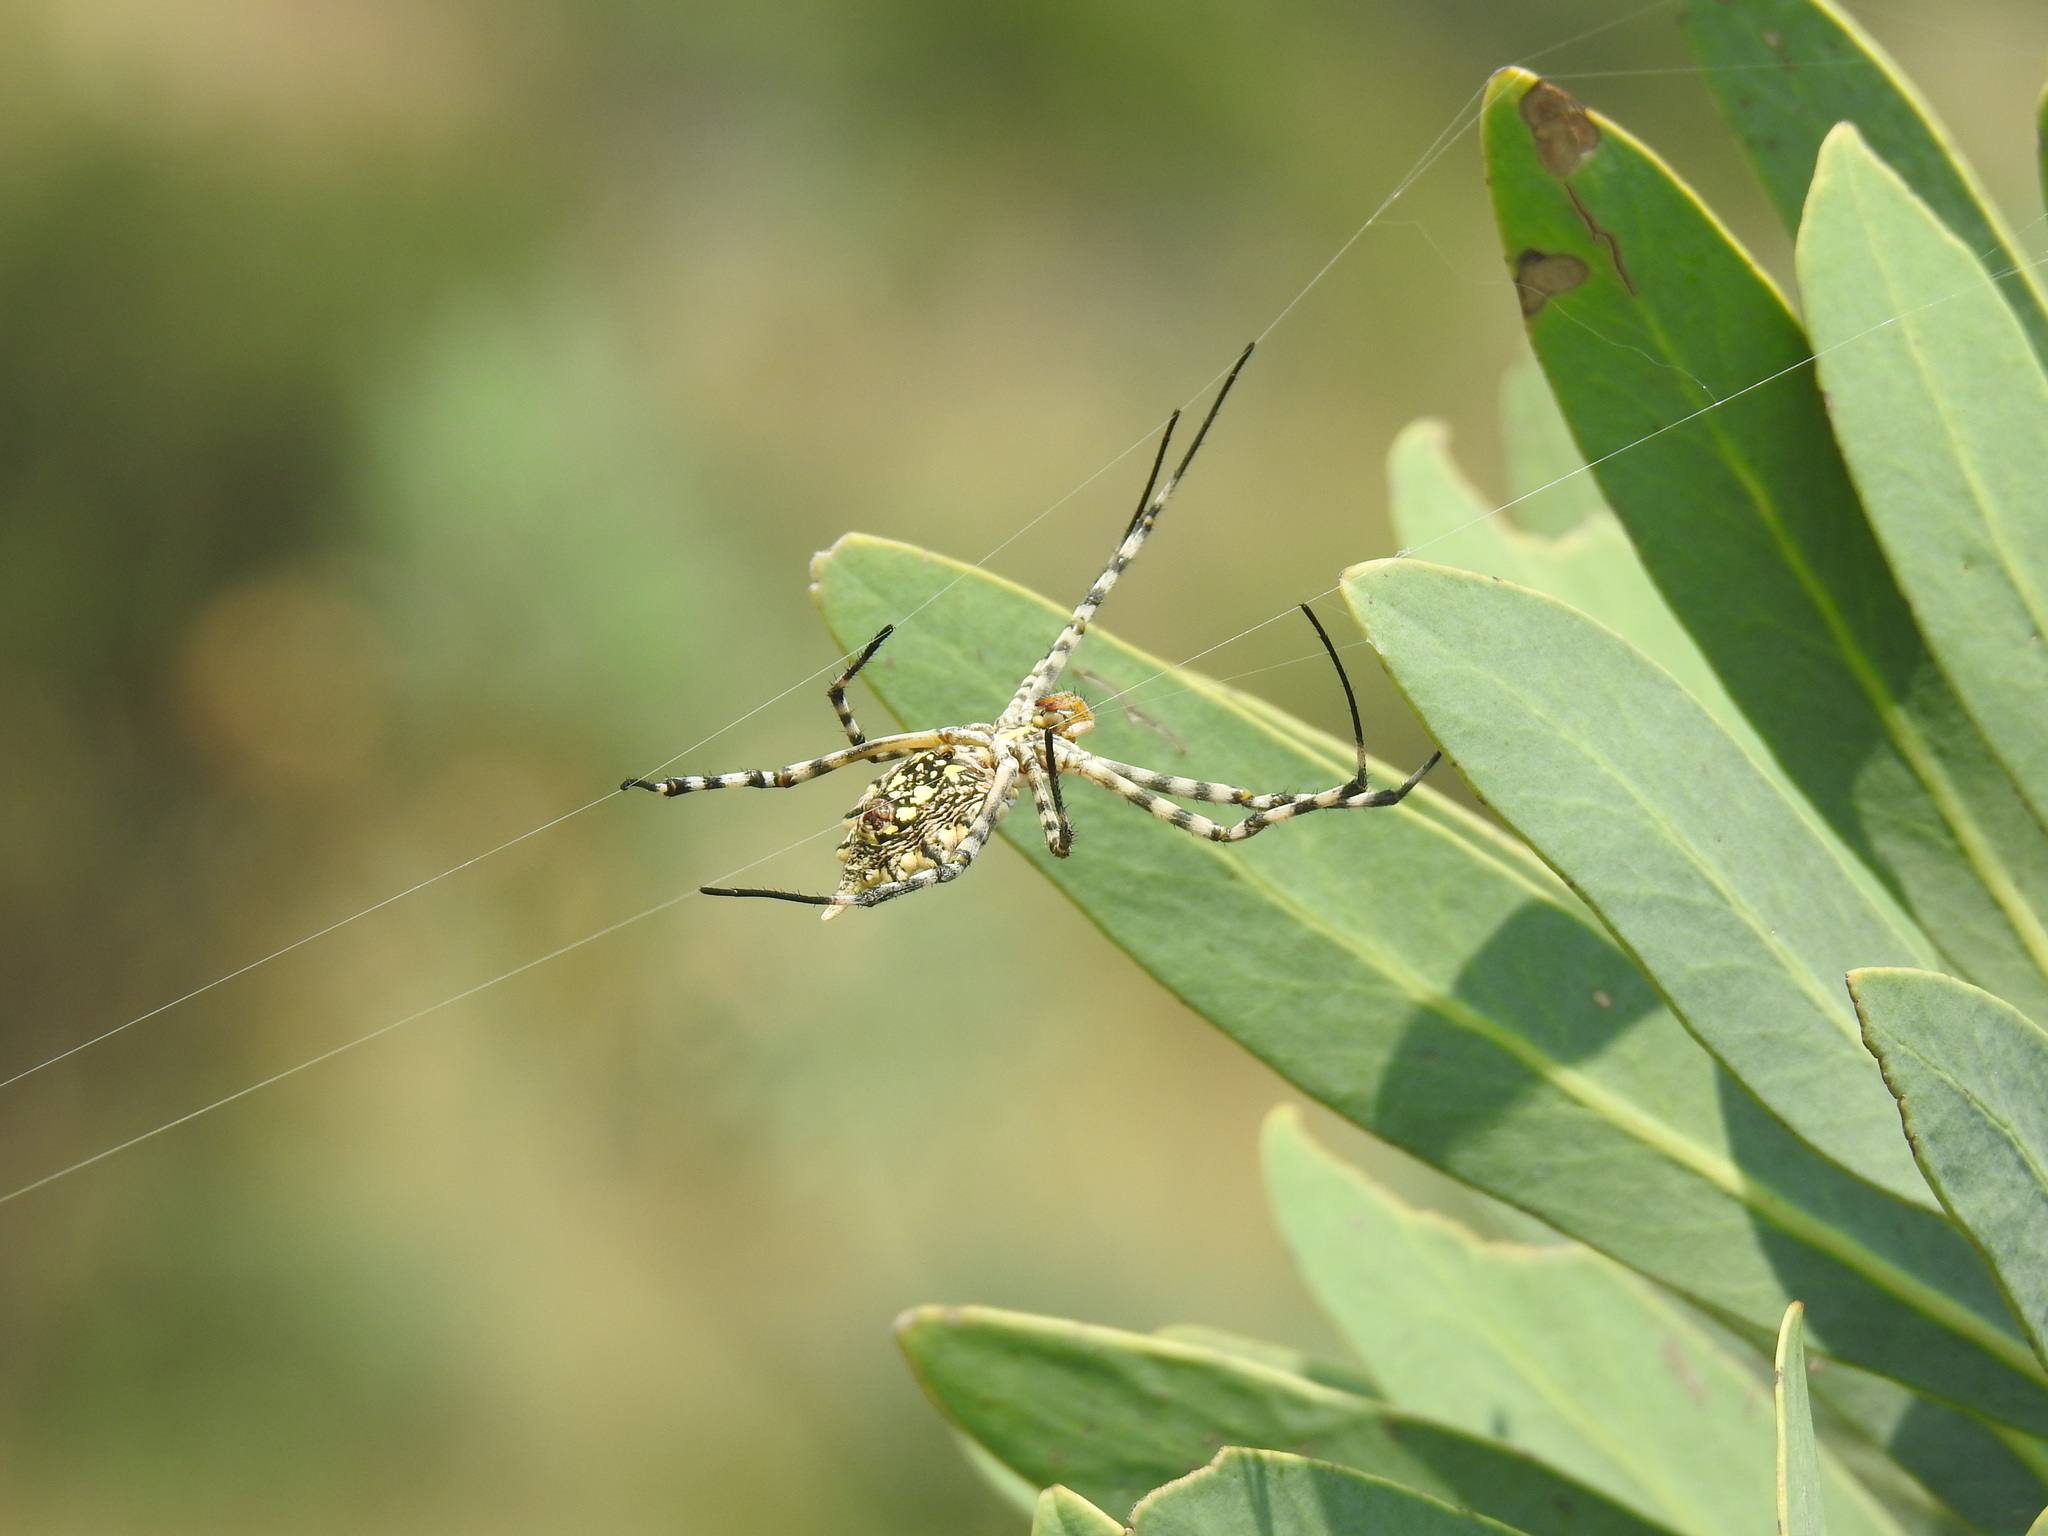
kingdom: Animalia
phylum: Arthropoda
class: Arachnida
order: Araneae
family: Araneidae
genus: Argiope
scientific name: Argiope australis
